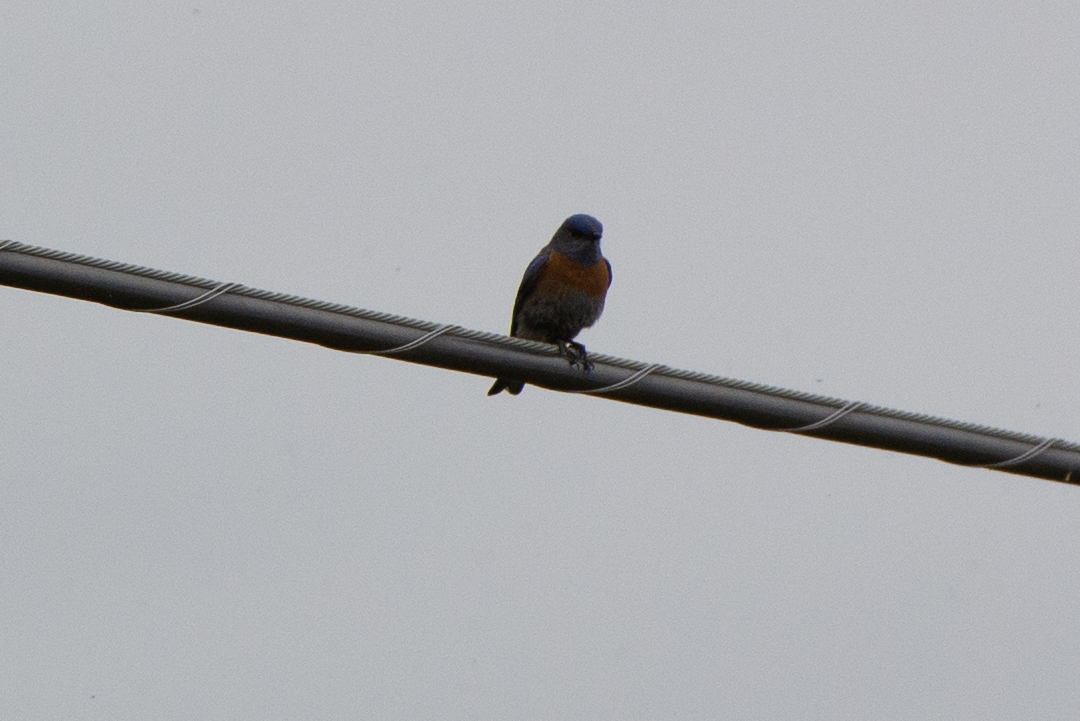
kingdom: Animalia
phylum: Chordata
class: Aves
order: Passeriformes
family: Turdidae
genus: Sialia
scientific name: Sialia mexicana
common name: Western bluebird
